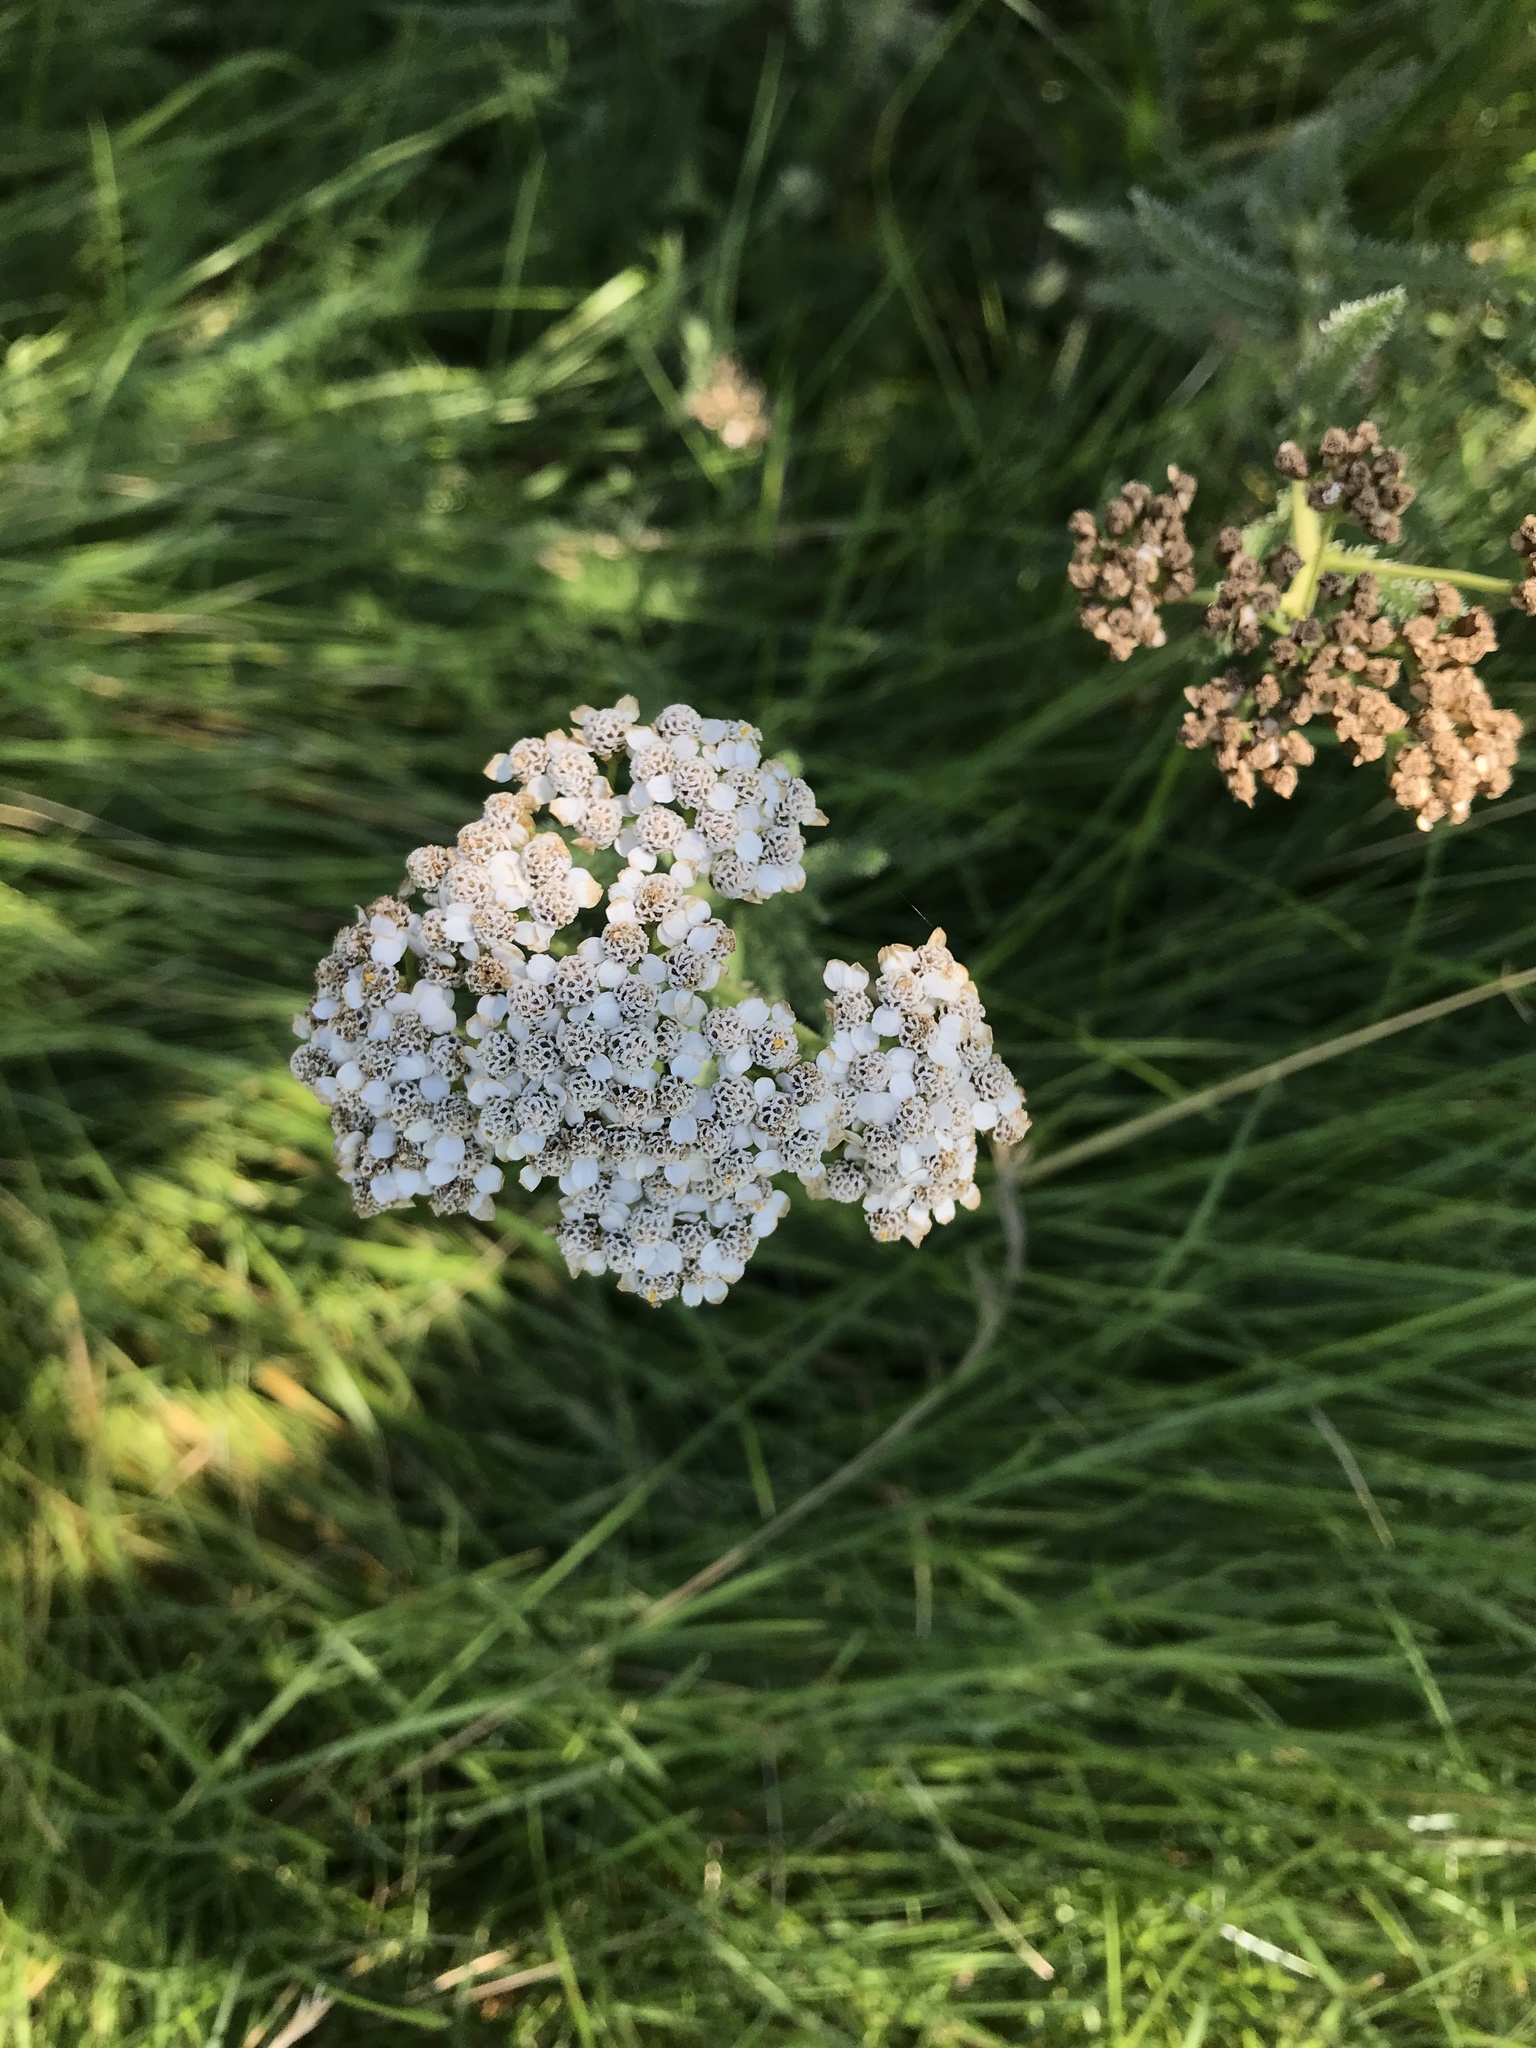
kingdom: Plantae
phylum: Tracheophyta
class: Magnoliopsida
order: Asterales
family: Asteraceae
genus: Achillea
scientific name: Achillea millefolium
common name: Yarrow
